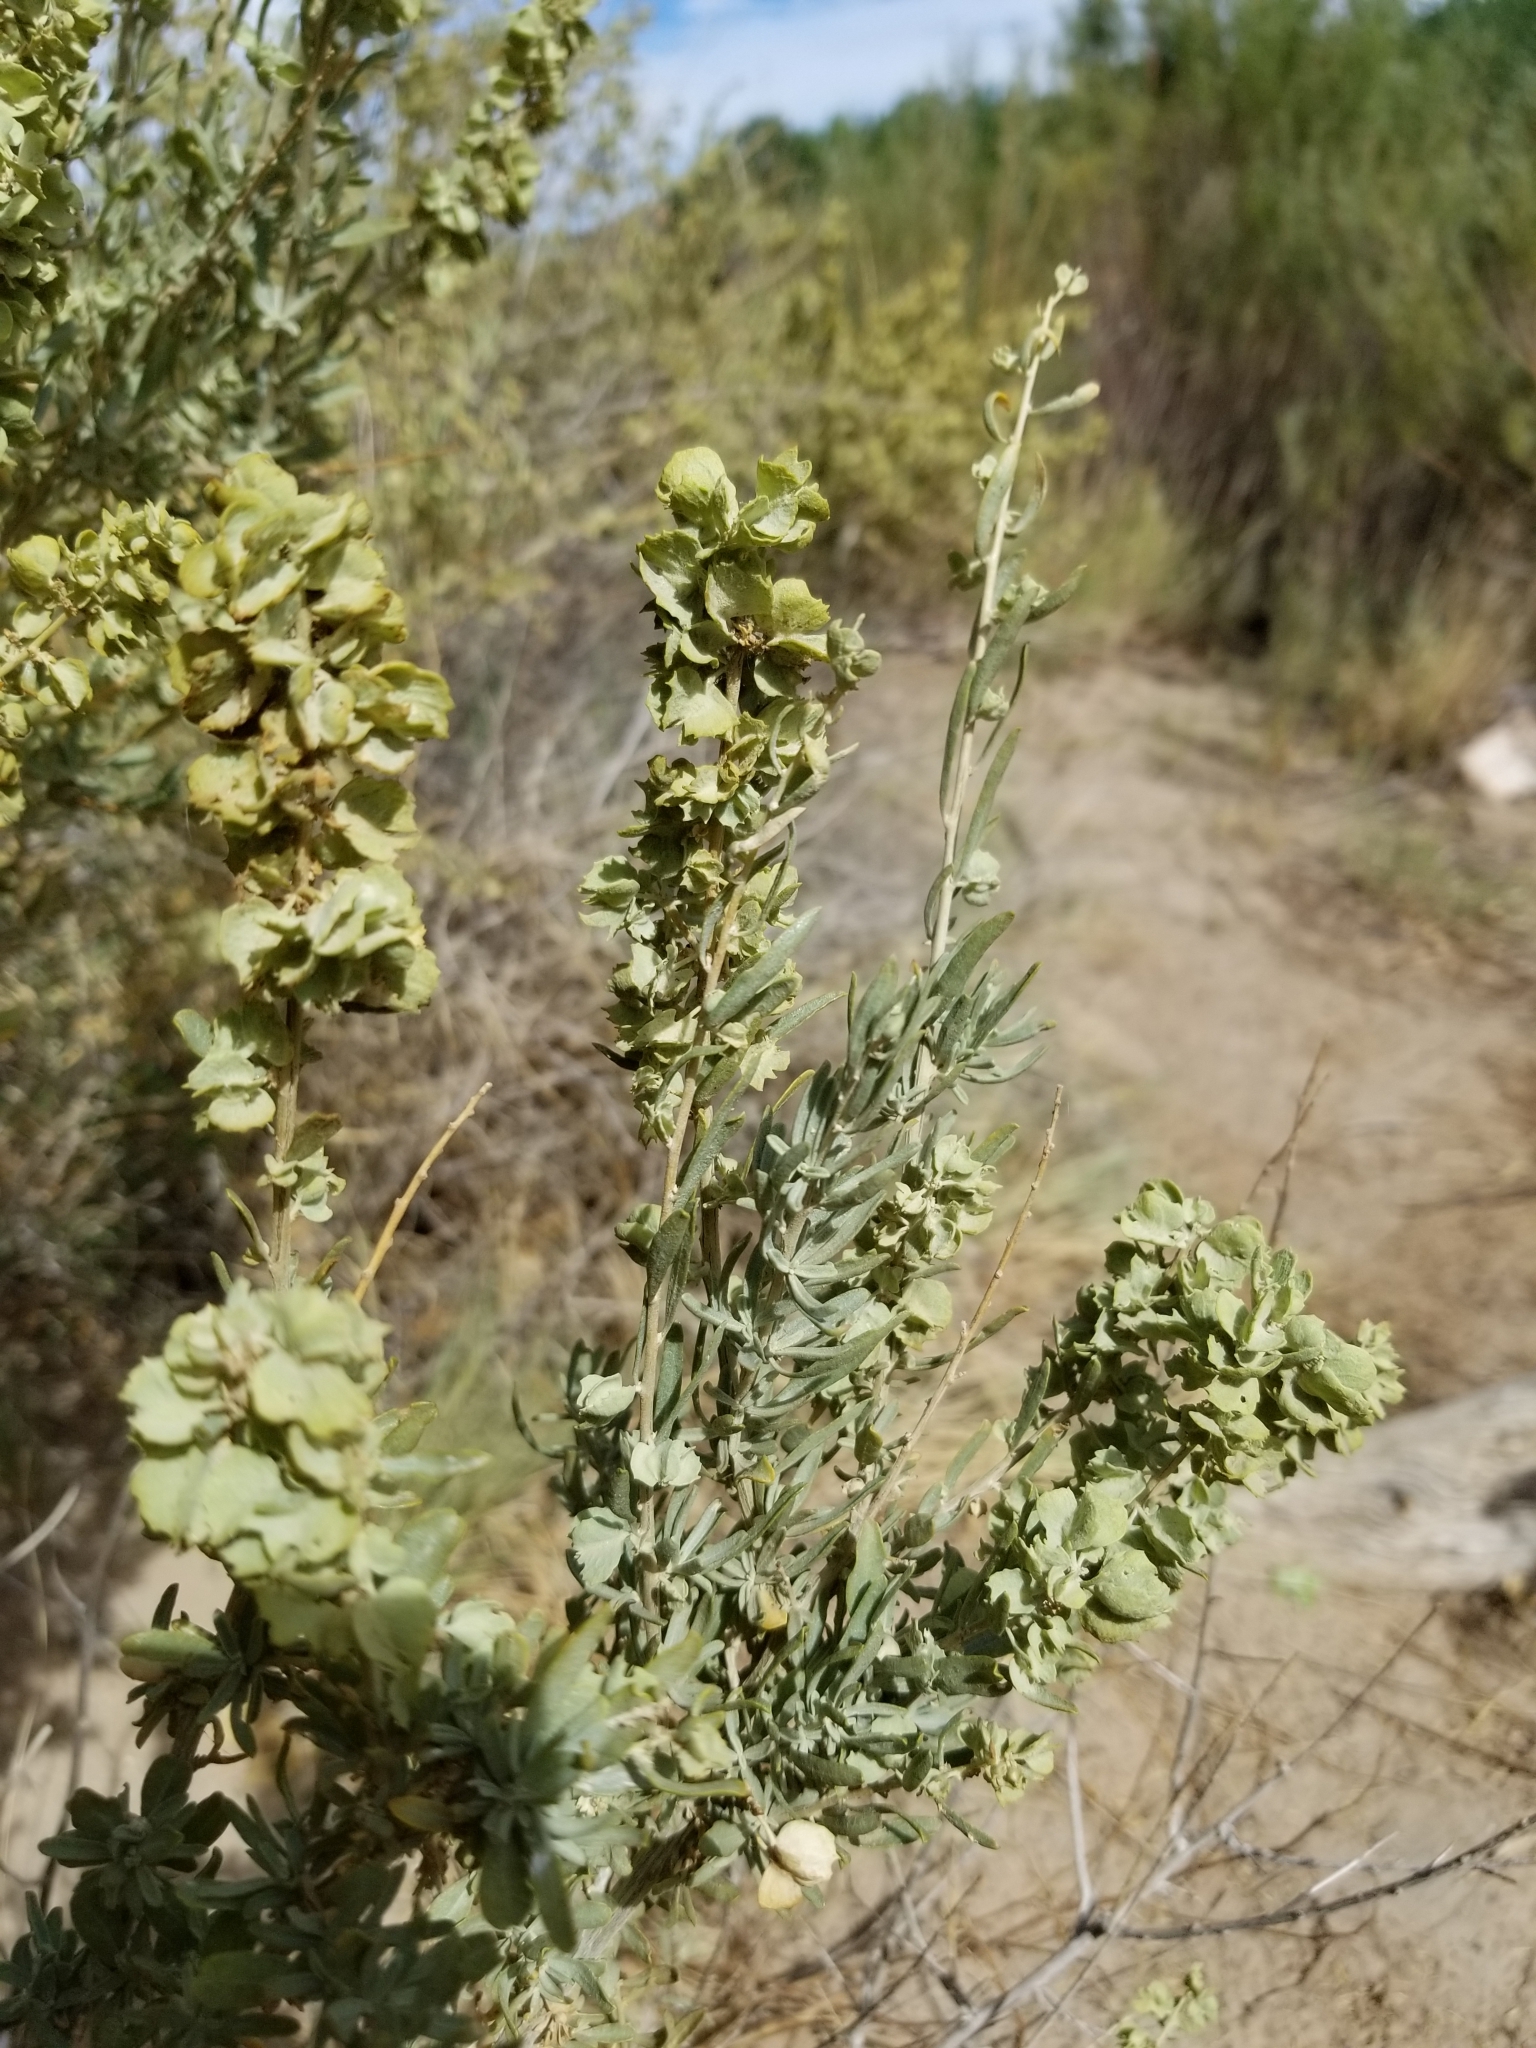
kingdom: Plantae
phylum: Tracheophyta
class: Magnoliopsida
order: Caryophyllales
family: Amaranthaceae
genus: Atriplex
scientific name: Atriplex canescens
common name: Four-wing saltbush
